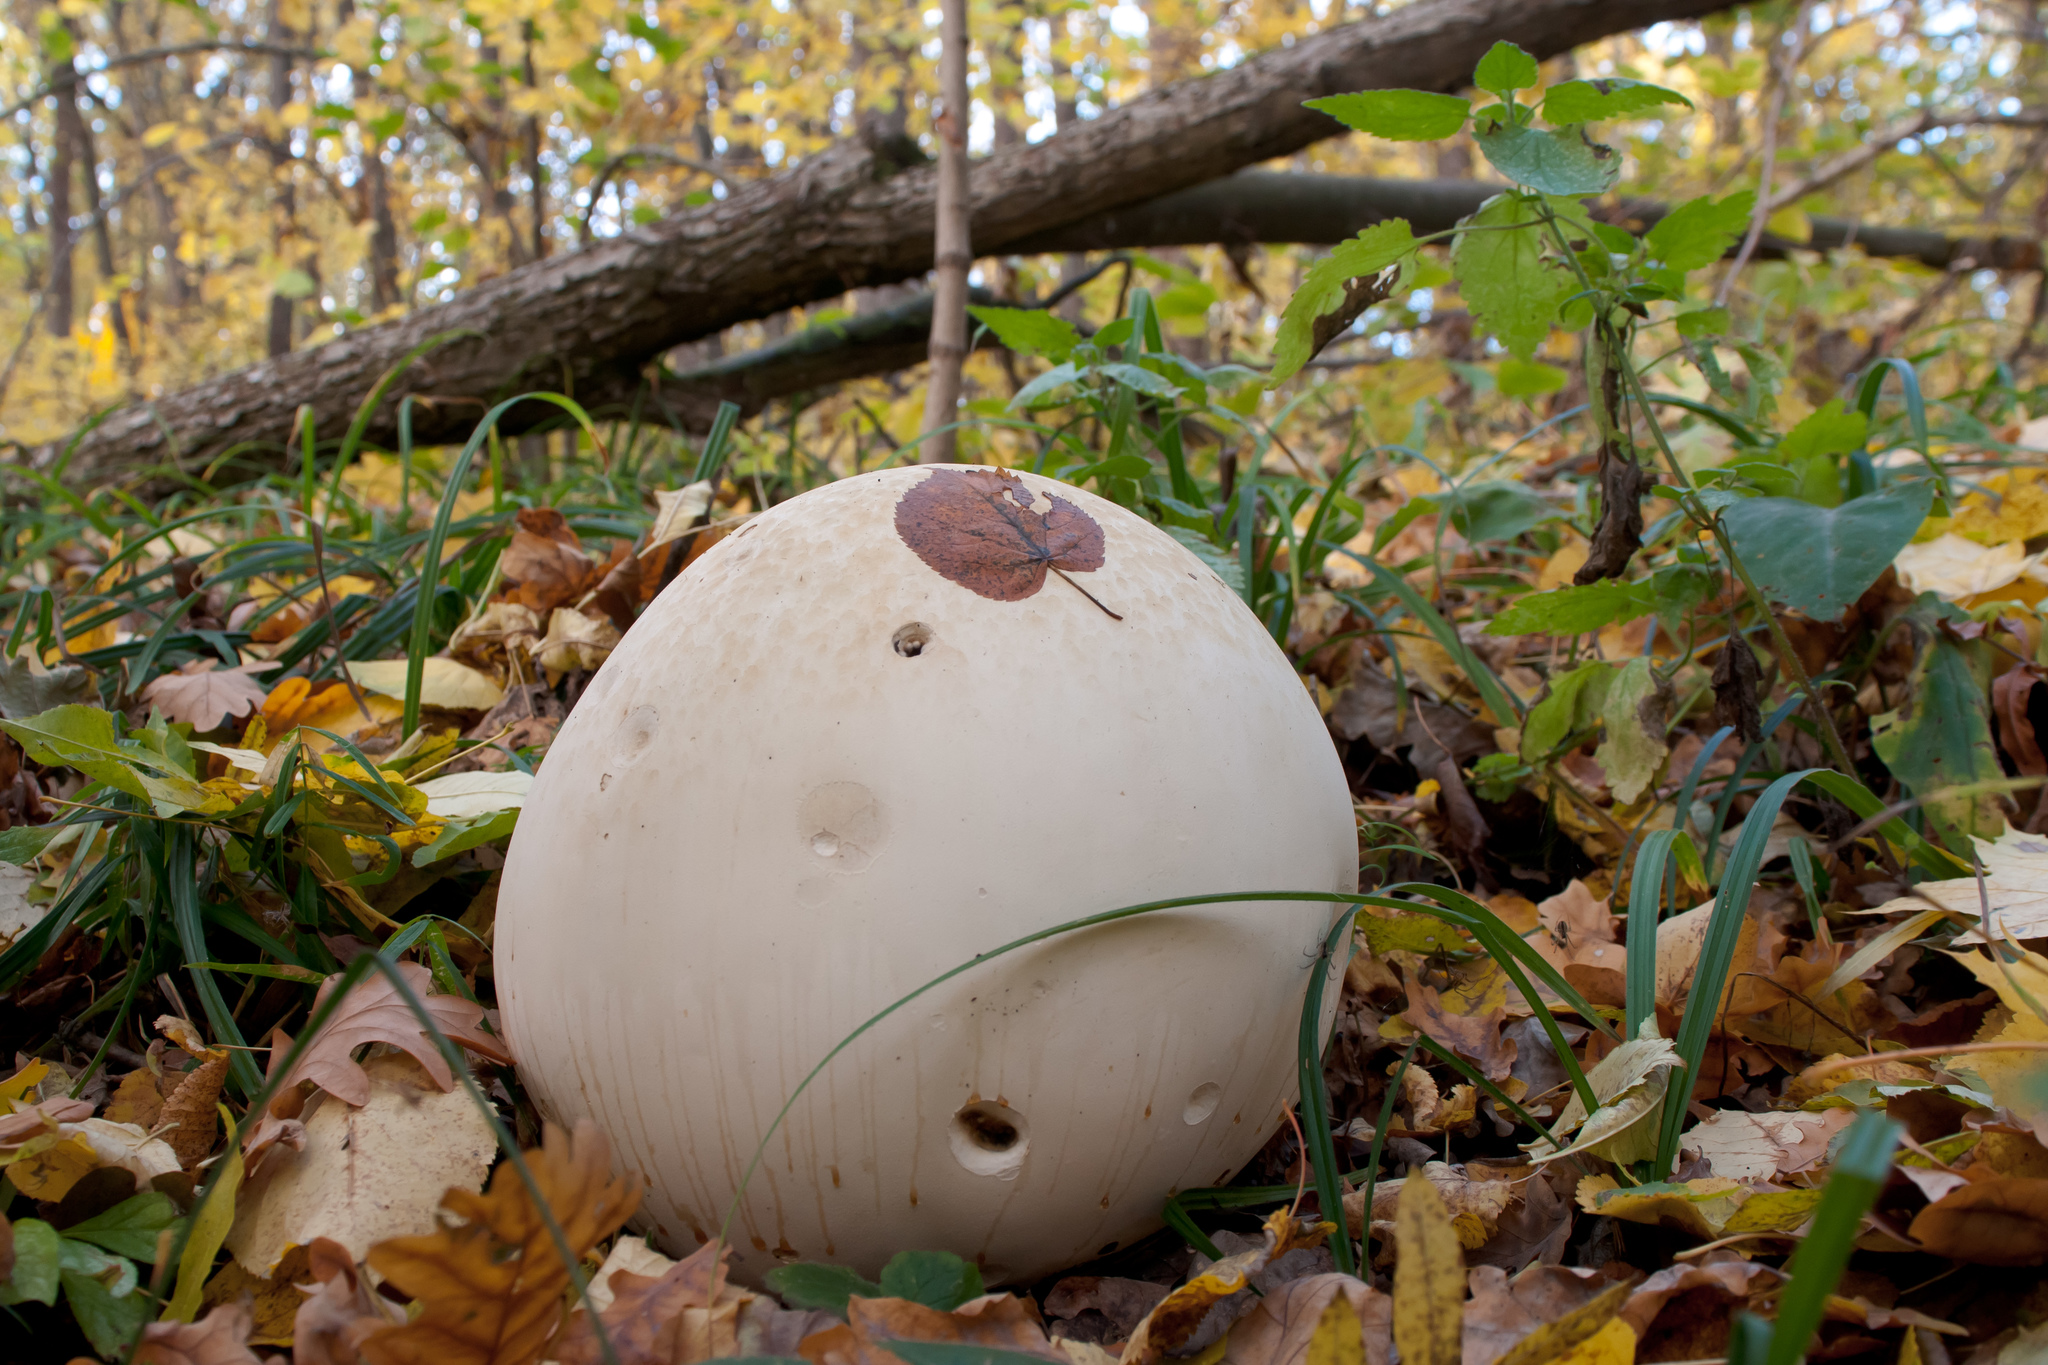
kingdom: Fungi
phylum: Basidiomycota
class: Agaricomycetes
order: Agaricales
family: Lycoperdaceae
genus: Calvatia
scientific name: Calvatia gigantea
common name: Giant puffball
